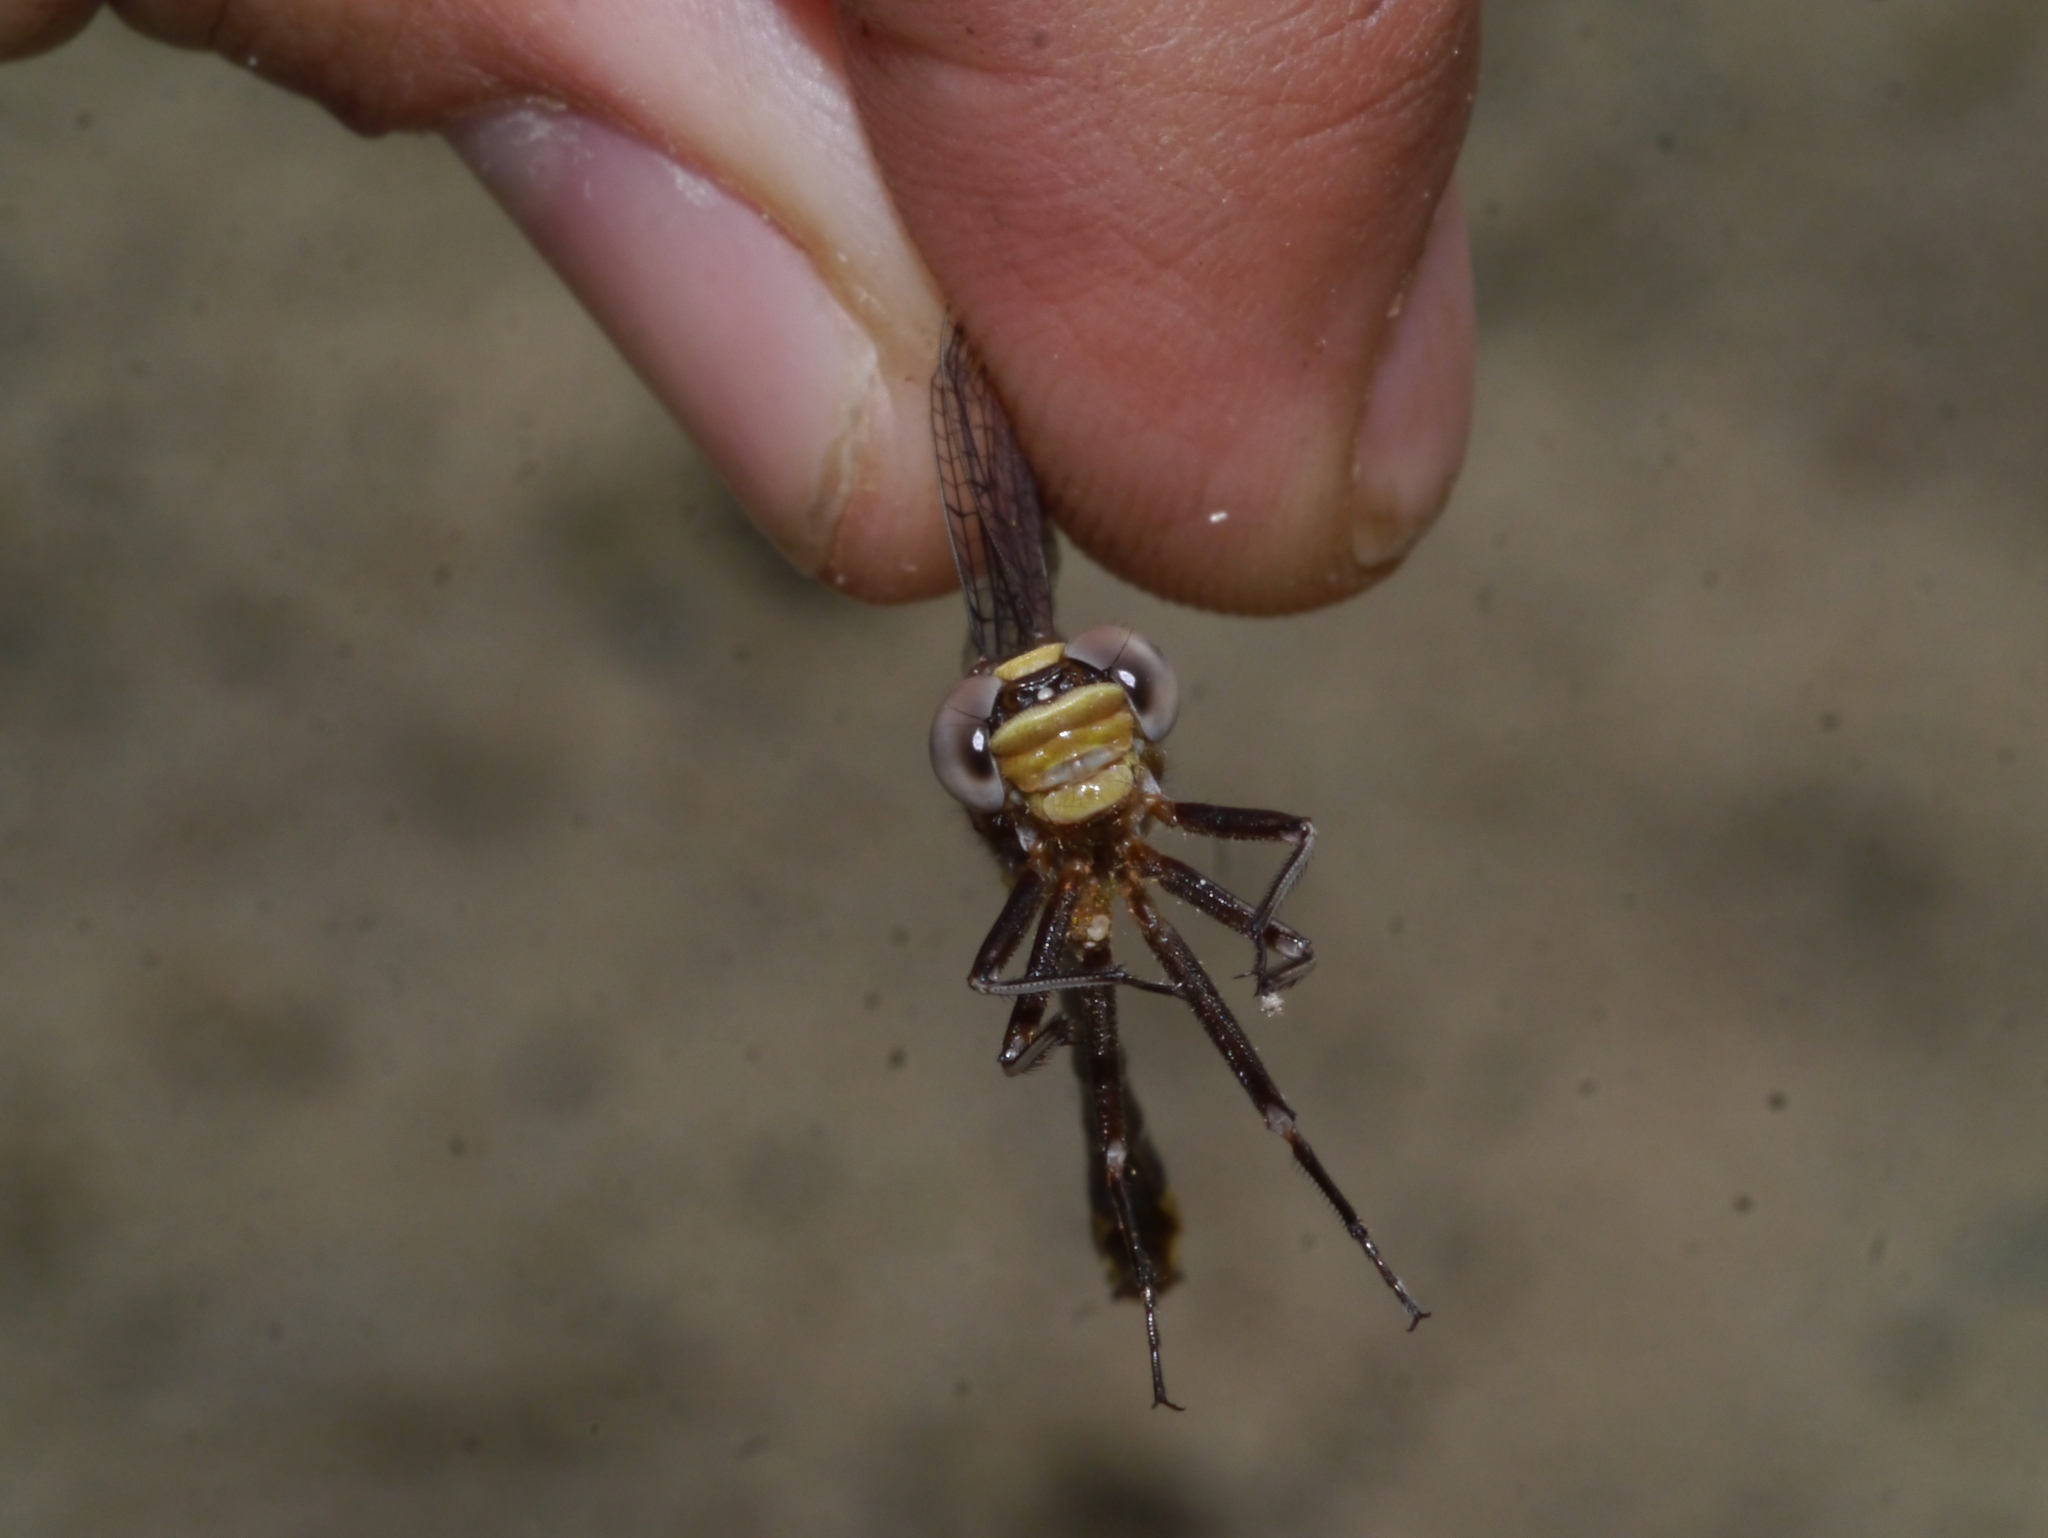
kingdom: Animalia
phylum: Arthropoda
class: Insecta
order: Odonata
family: Gomphidae
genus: Phanogomphus
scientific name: Phanogomphus exilis
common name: Lancet clubtail
